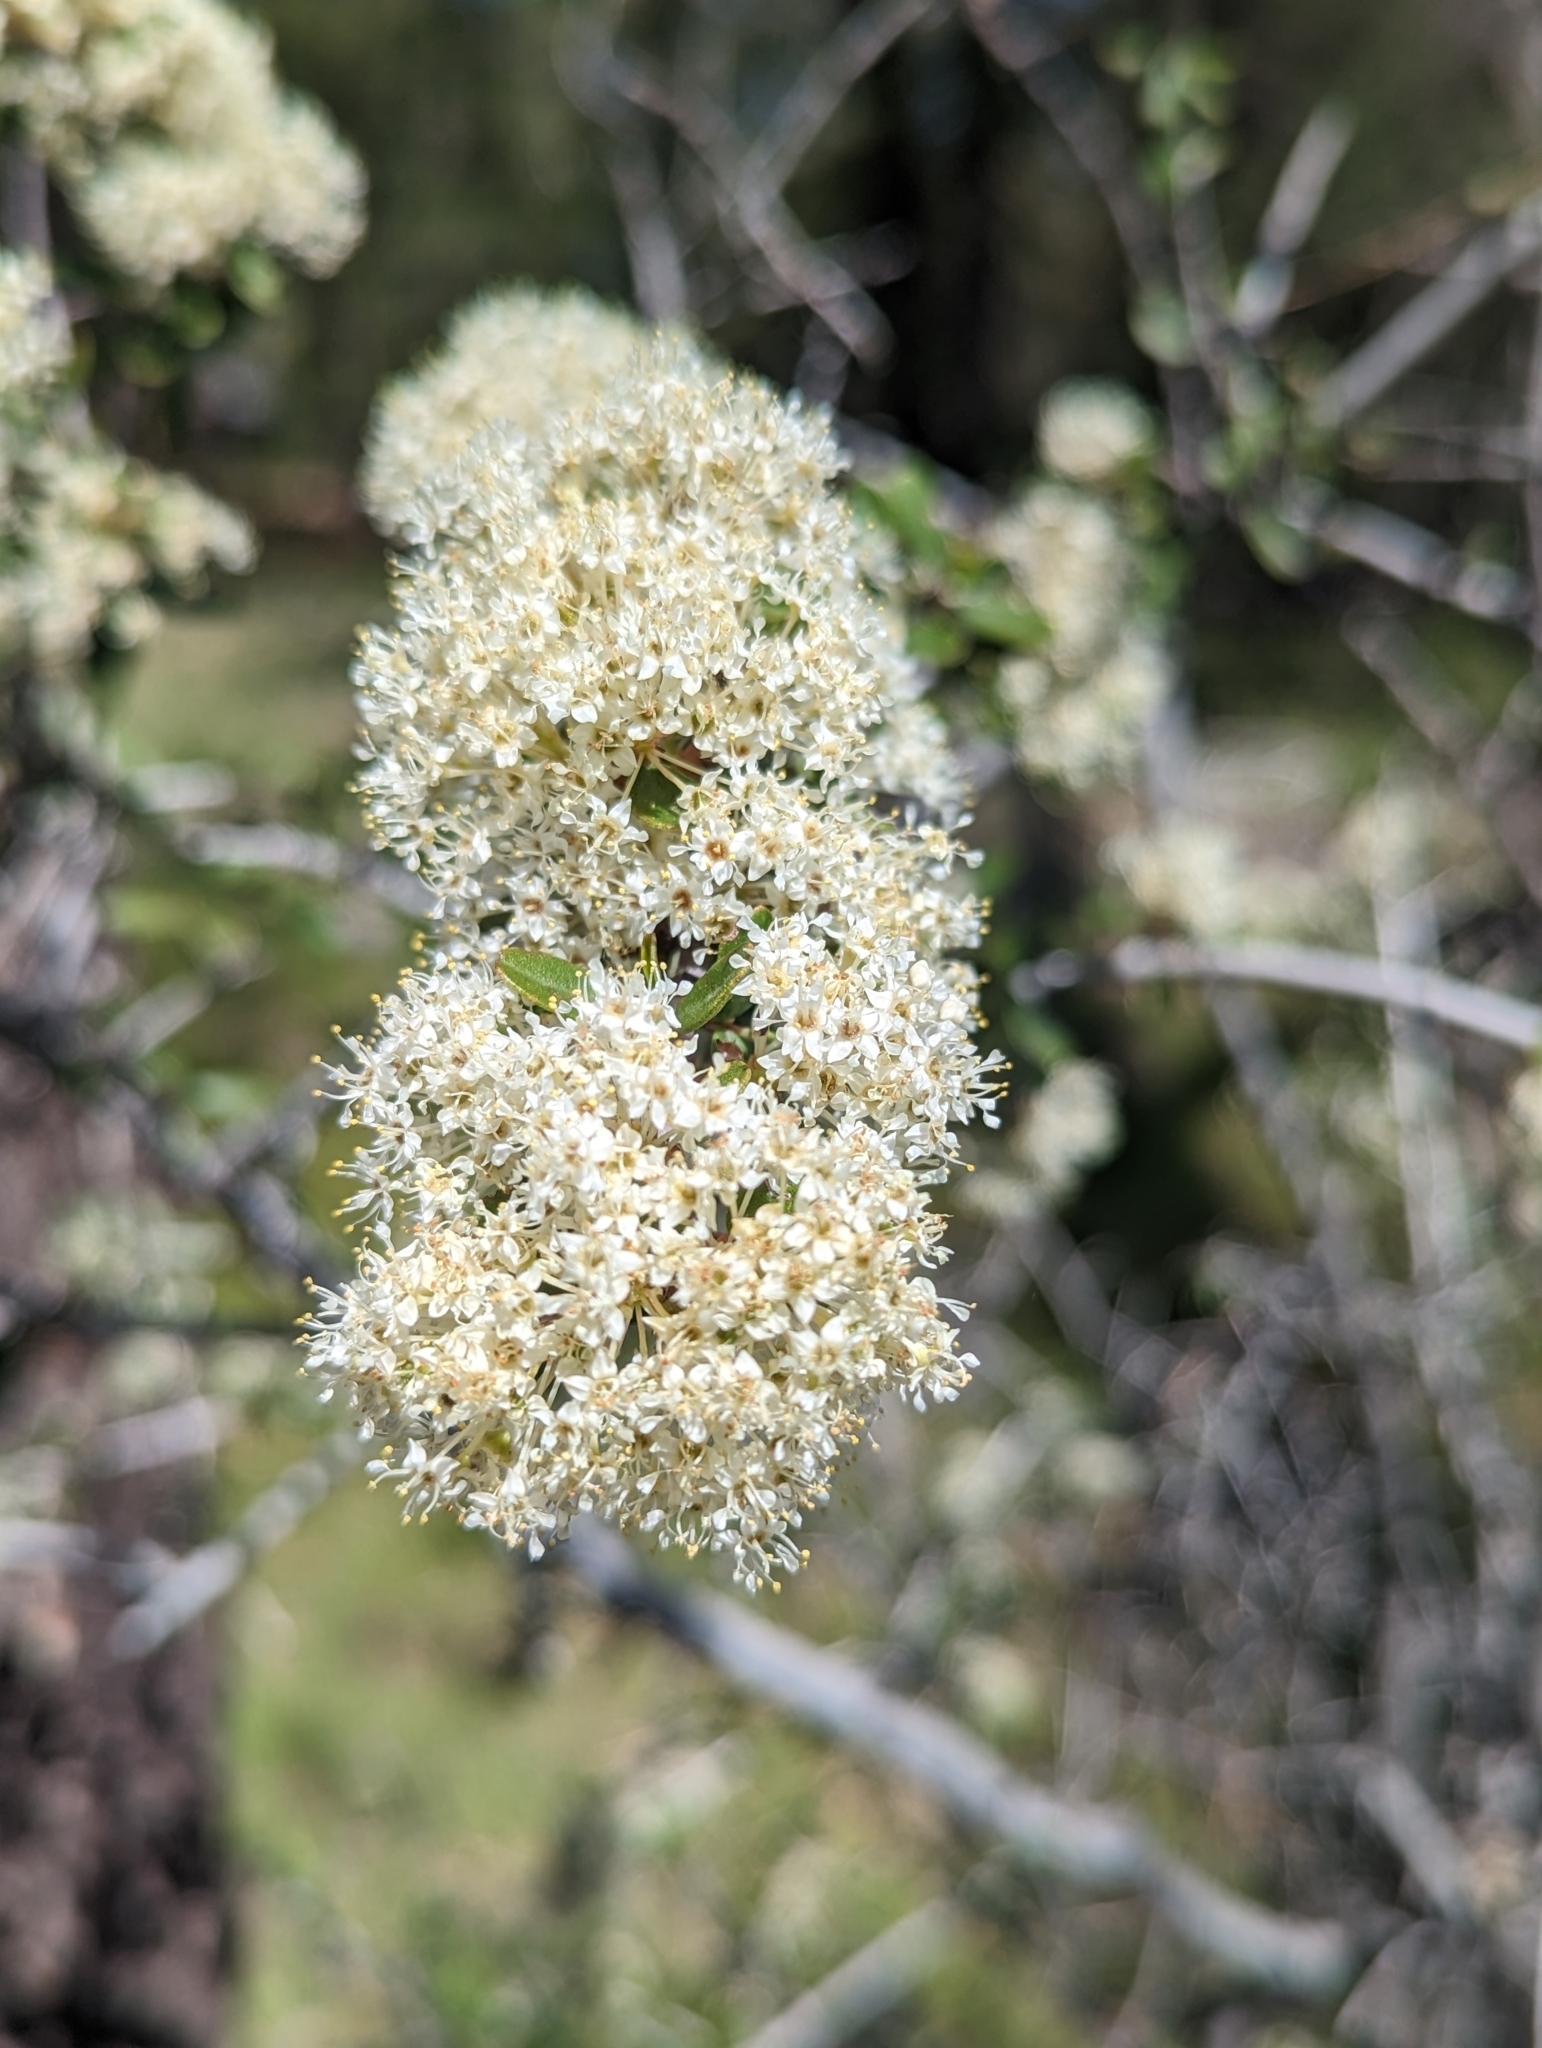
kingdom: Plantae
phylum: Tracheophyta
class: Magnoliopsida
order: Rosales
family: Rhamnaceae
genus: Ceanothus
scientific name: Ceanothus cuneatus
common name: Cuneate ceanothus
